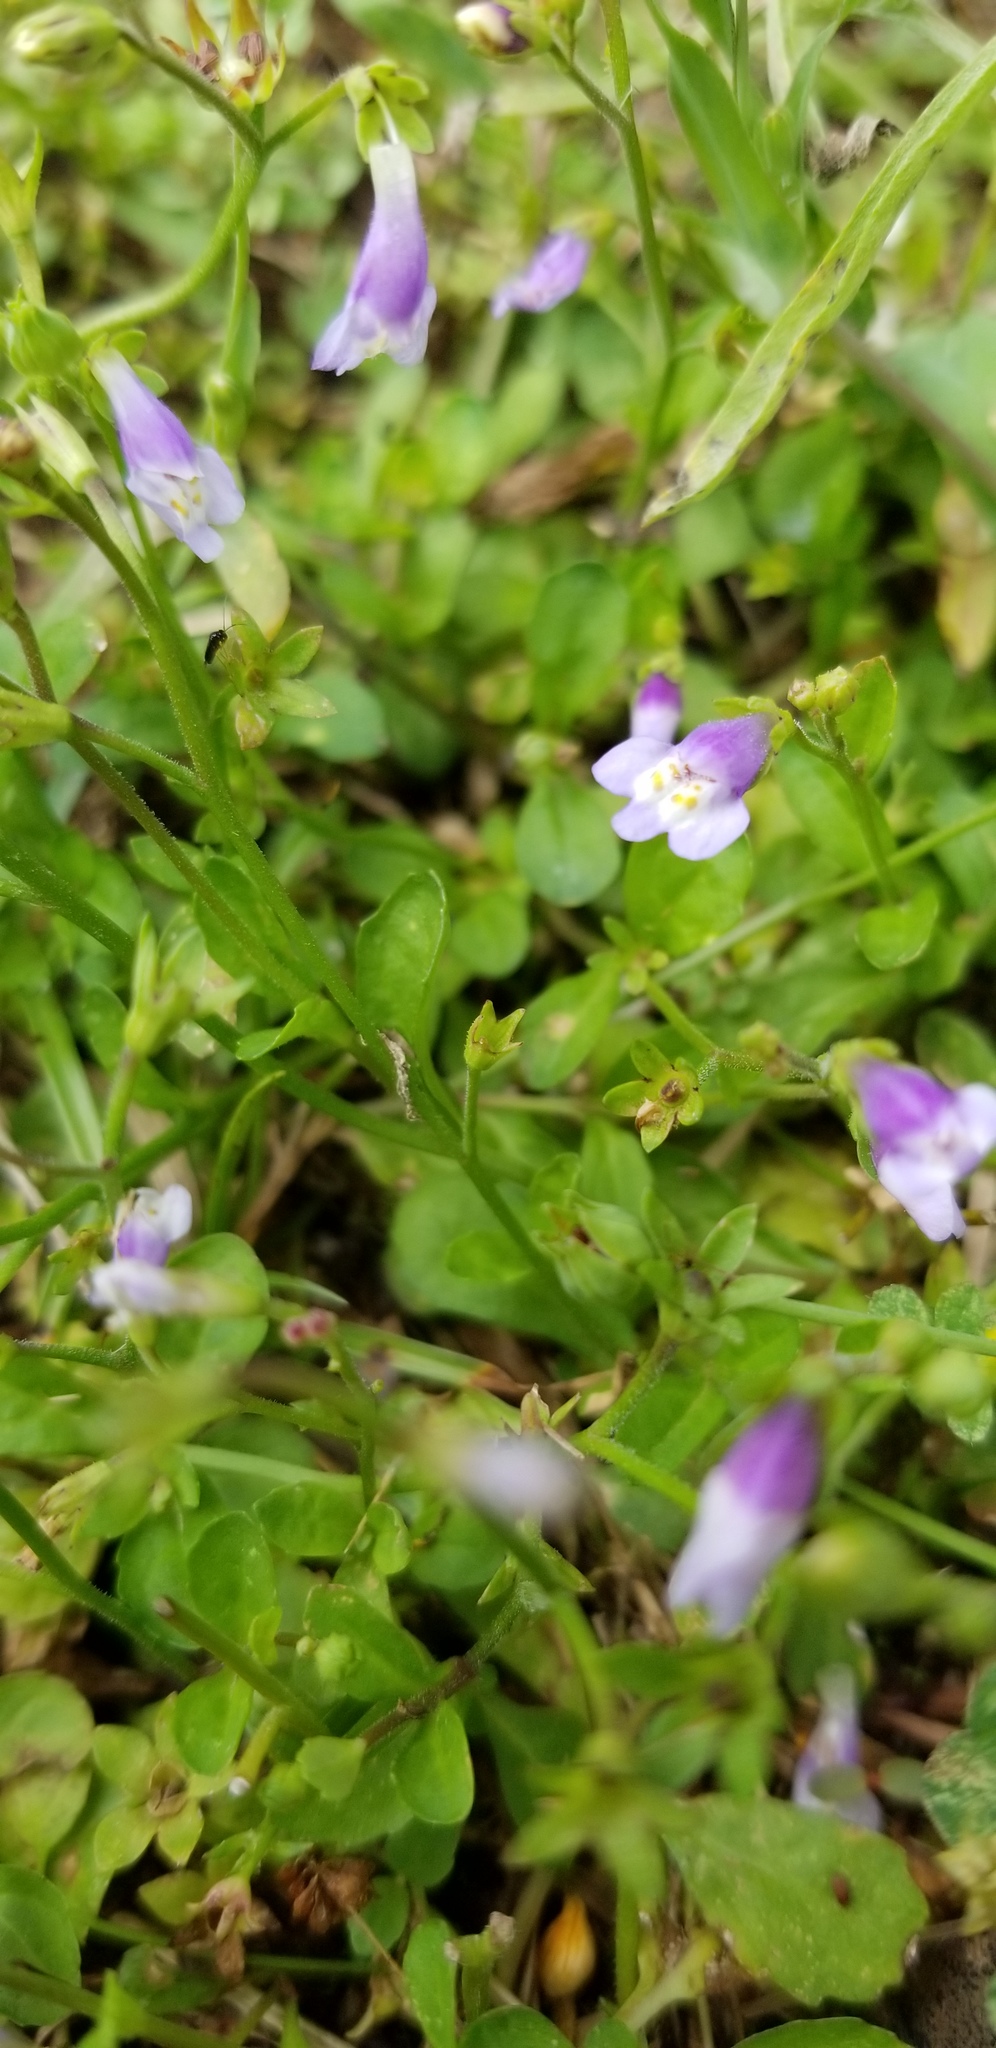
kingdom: Plantae
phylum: Tracheophyta
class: Magnoliopsida
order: Lamiales
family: Mazaceae
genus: Mazus
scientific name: Mazus pumilus
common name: Japanese mazus
